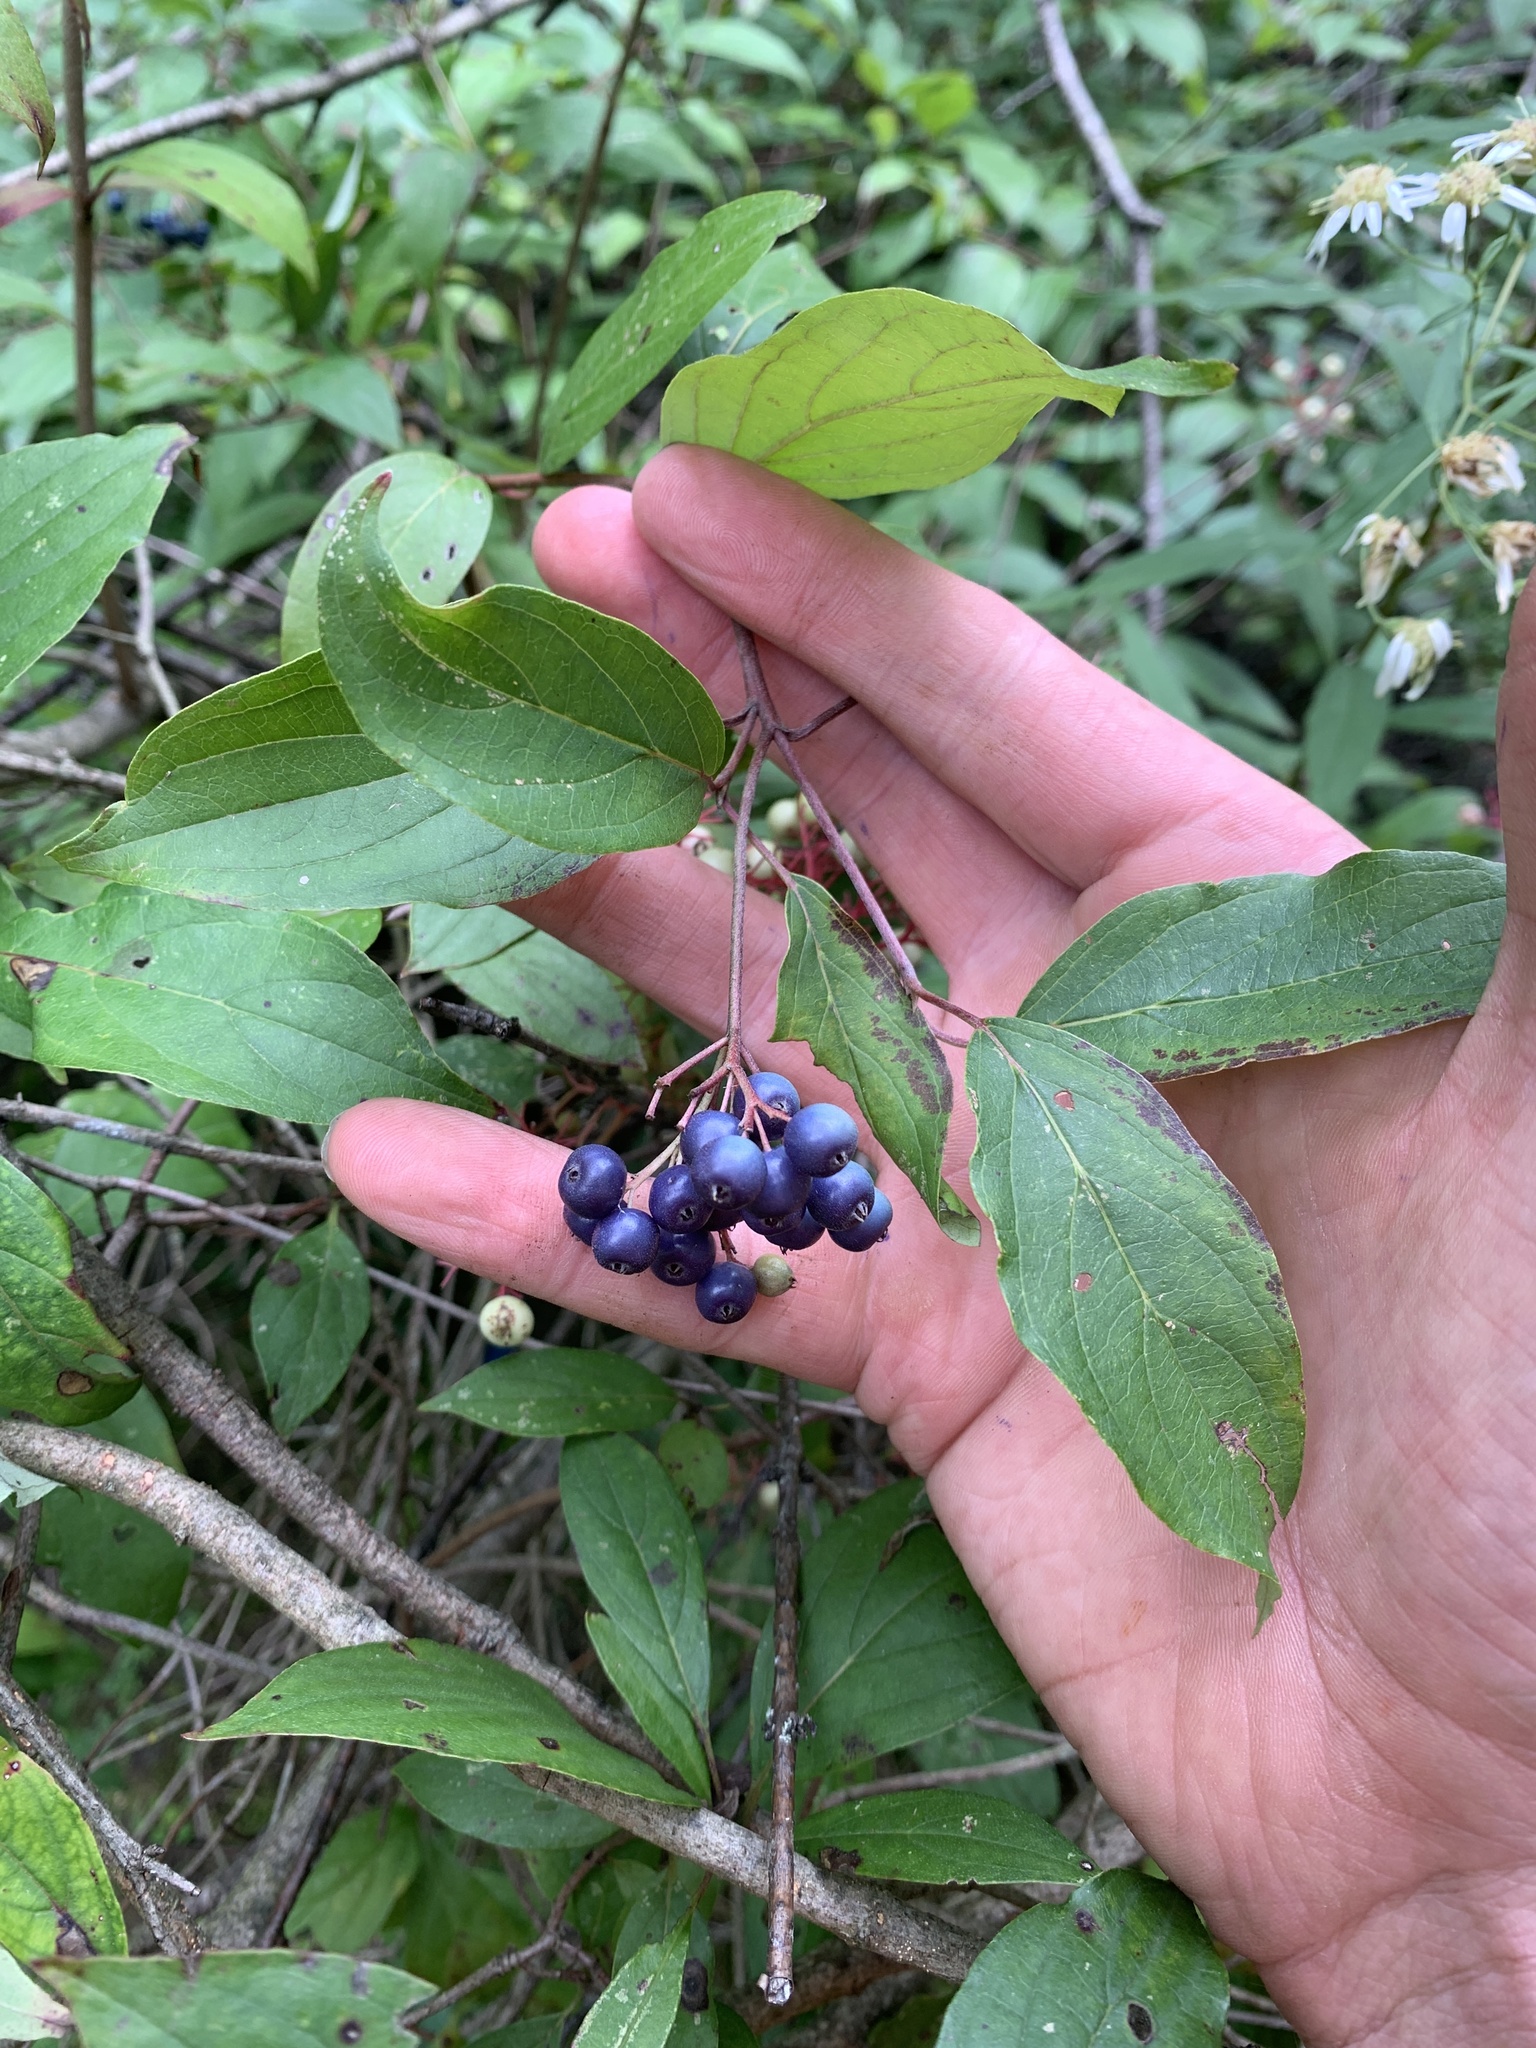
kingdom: Plantae
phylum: Tracheophyta
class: Magnoliopsida
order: Cornales
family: Cornaceae
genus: Cornus
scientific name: Cornus amomum
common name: Silky dogwood
